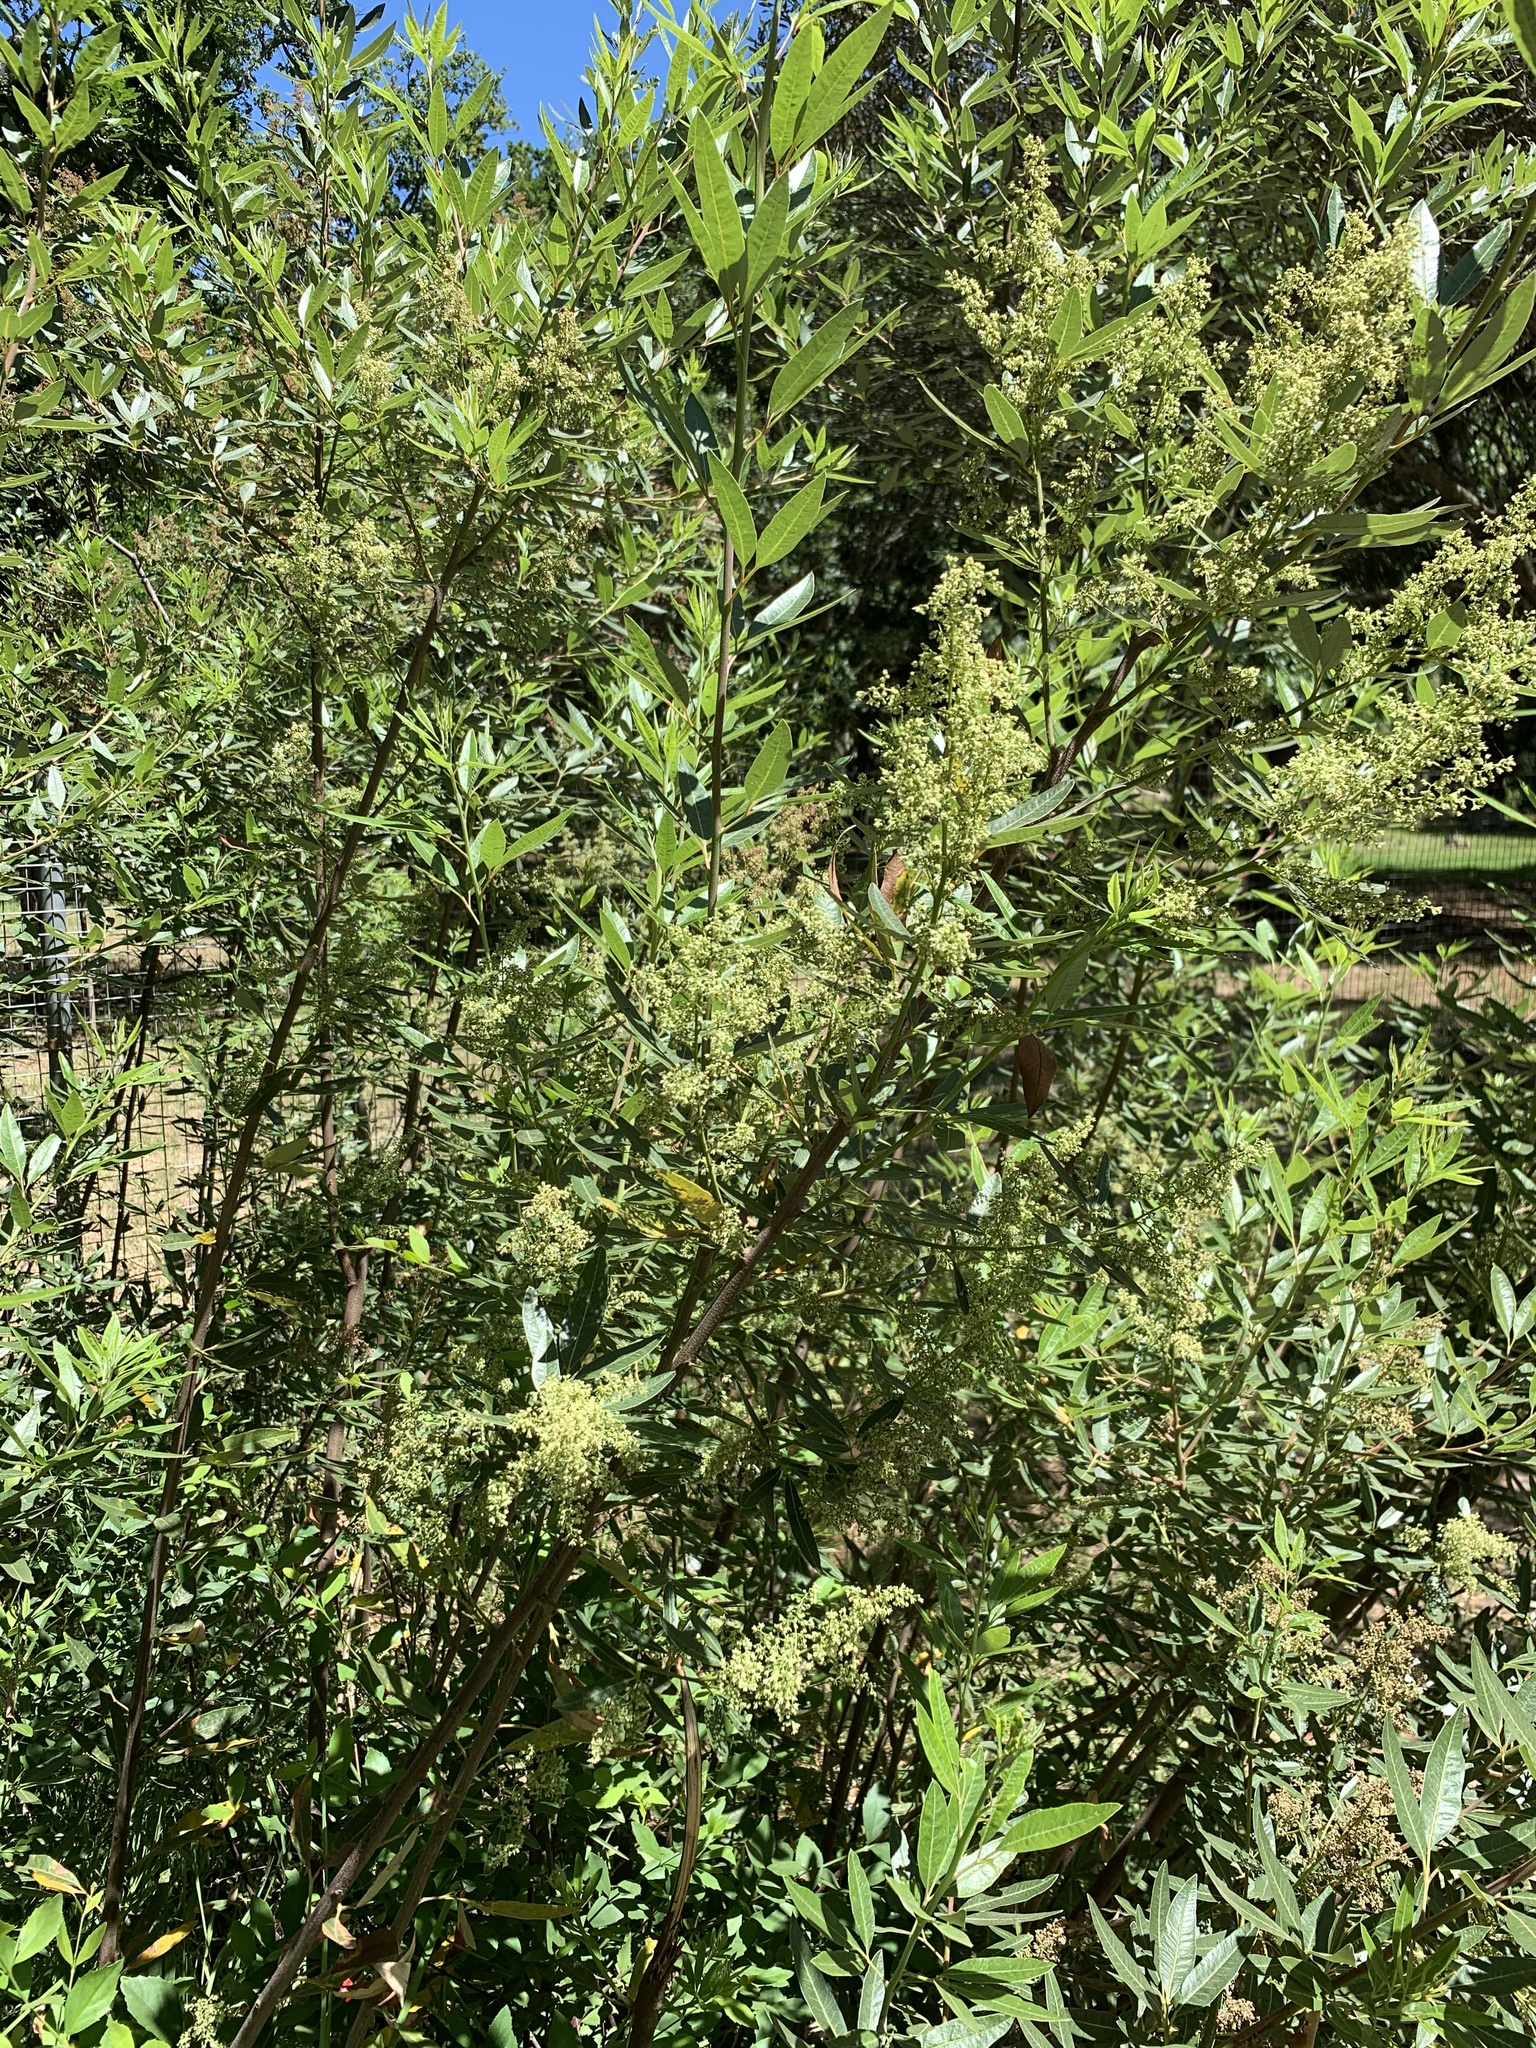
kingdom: Plantae
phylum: Tracheophyta
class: Magnoliopsida
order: Sapindales
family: Anacardiaceae
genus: Searsia
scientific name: Searsia angustifolia
